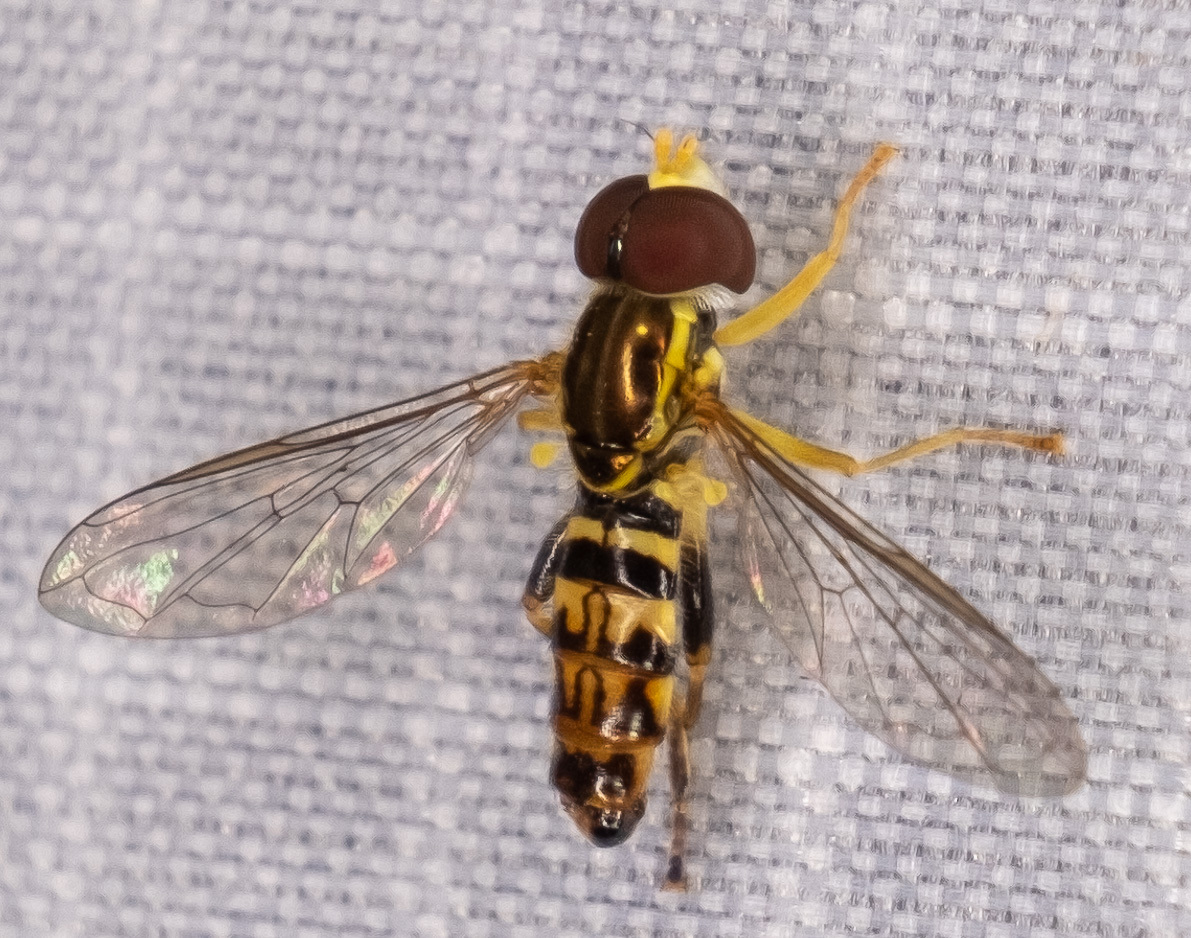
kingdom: Animalia
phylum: Arthropoda
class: Insecta
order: Diptera
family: Syrphidae
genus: Toxomerus
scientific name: Toxomerus geminatus
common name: Eastern calligrapher
